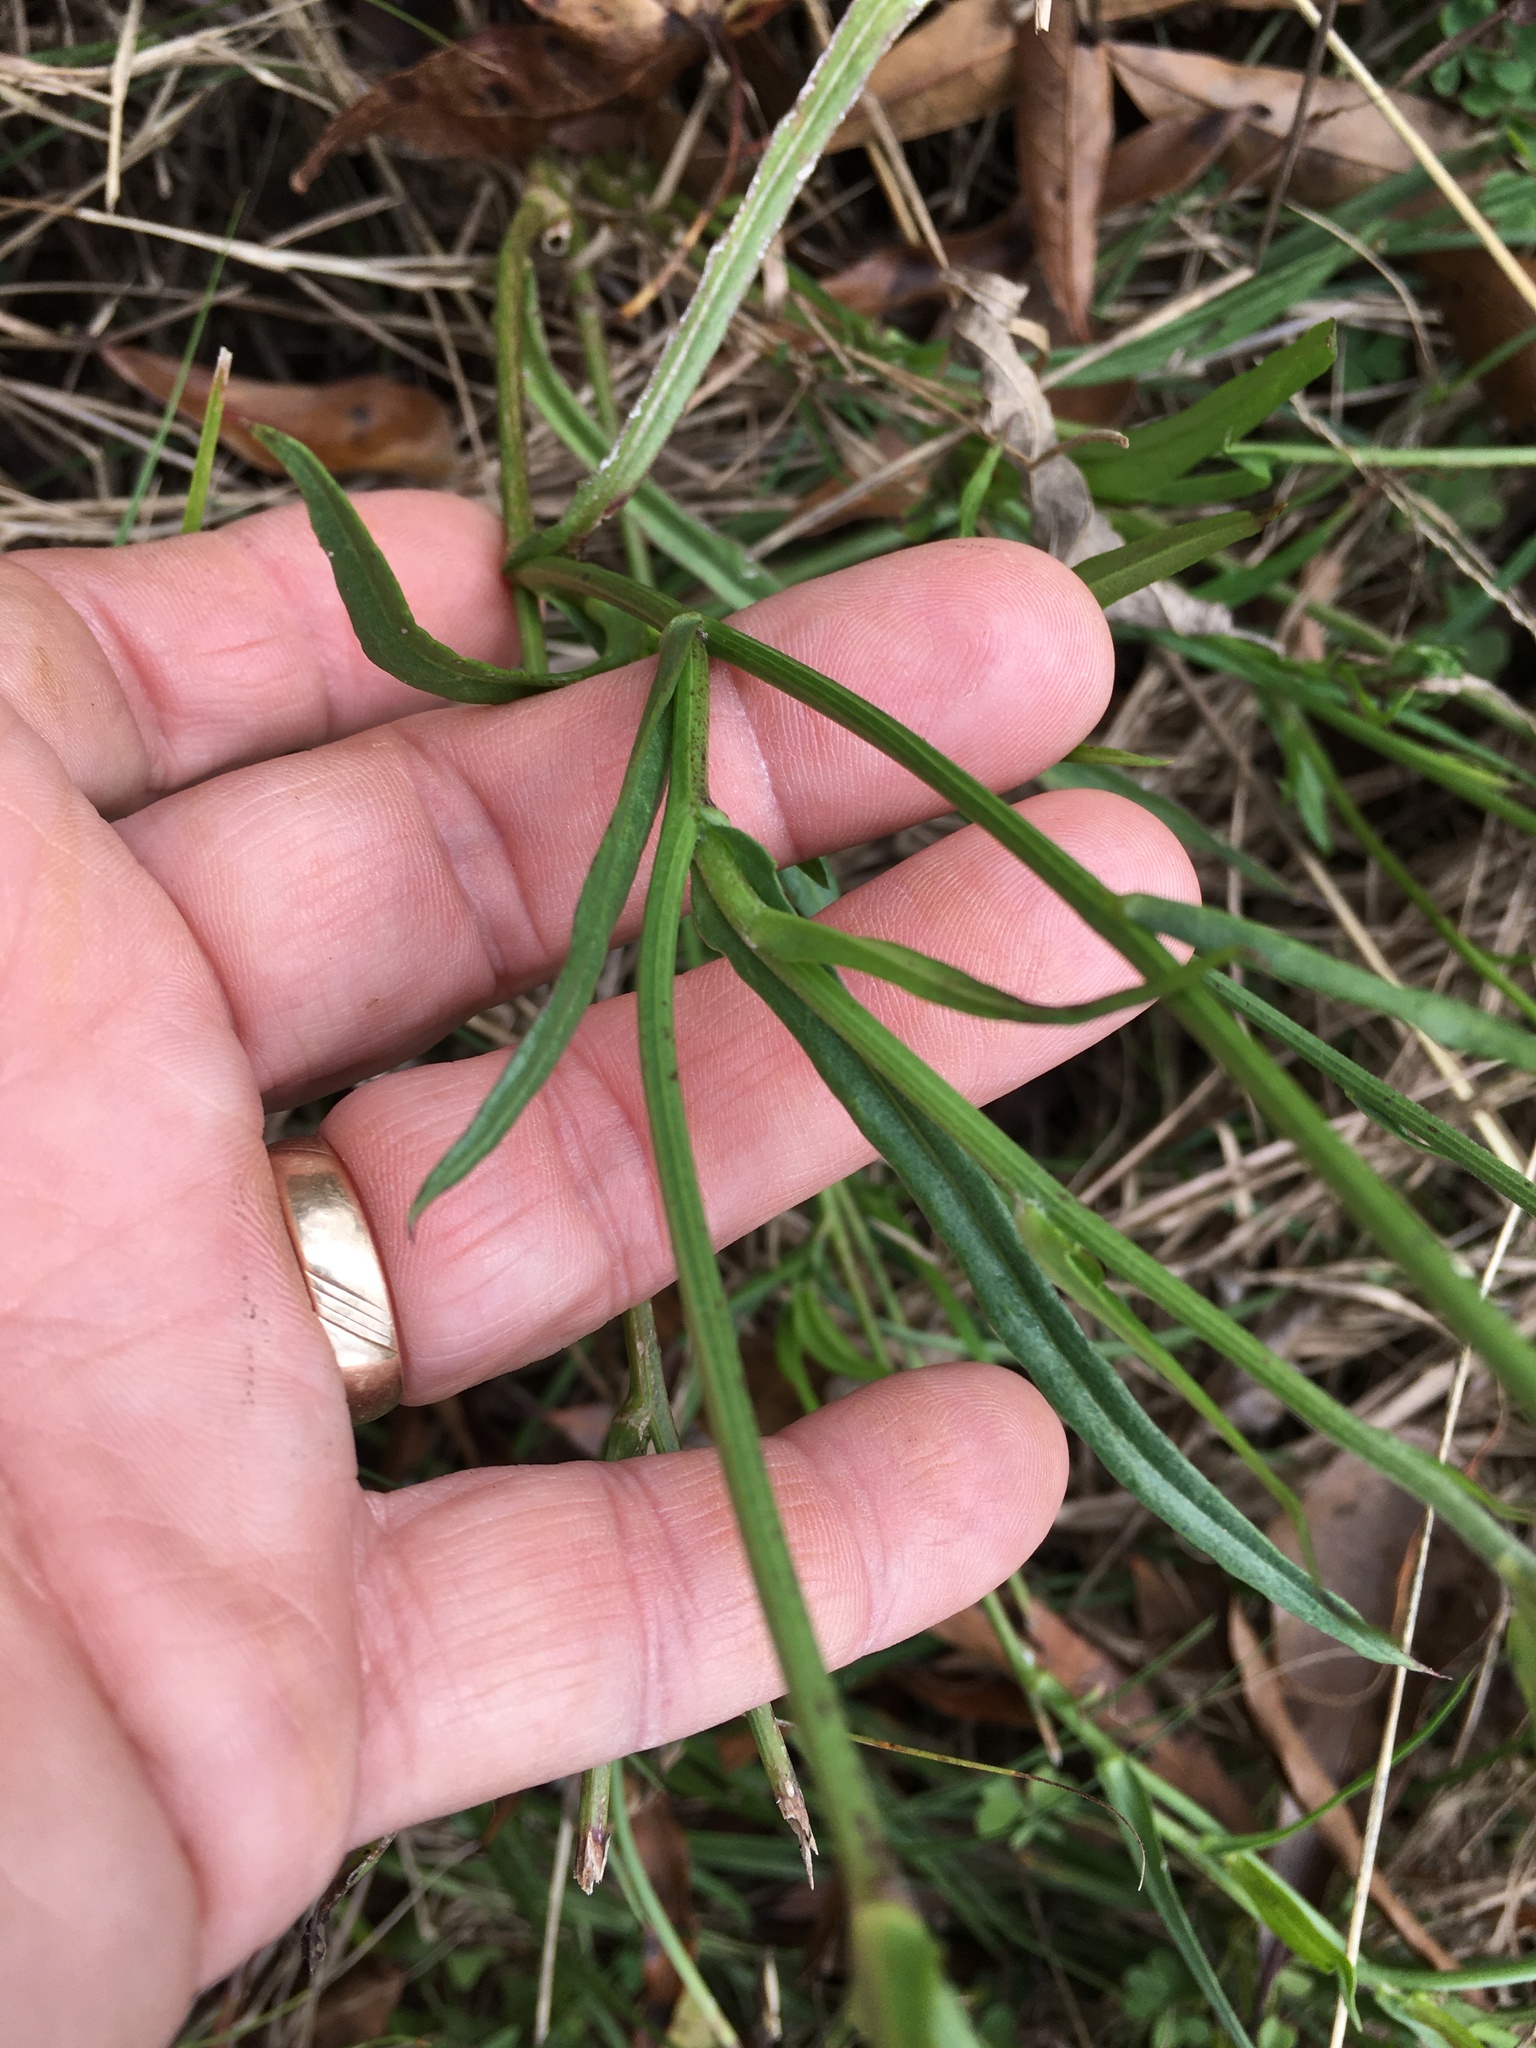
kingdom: Plantae
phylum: Tracheophyta
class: Magnoliopsida
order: Asterales
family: Asteraceae
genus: Pyrrhopappus
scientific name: Pyrrhopappus carolinianus
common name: Carolina desert-chicory
